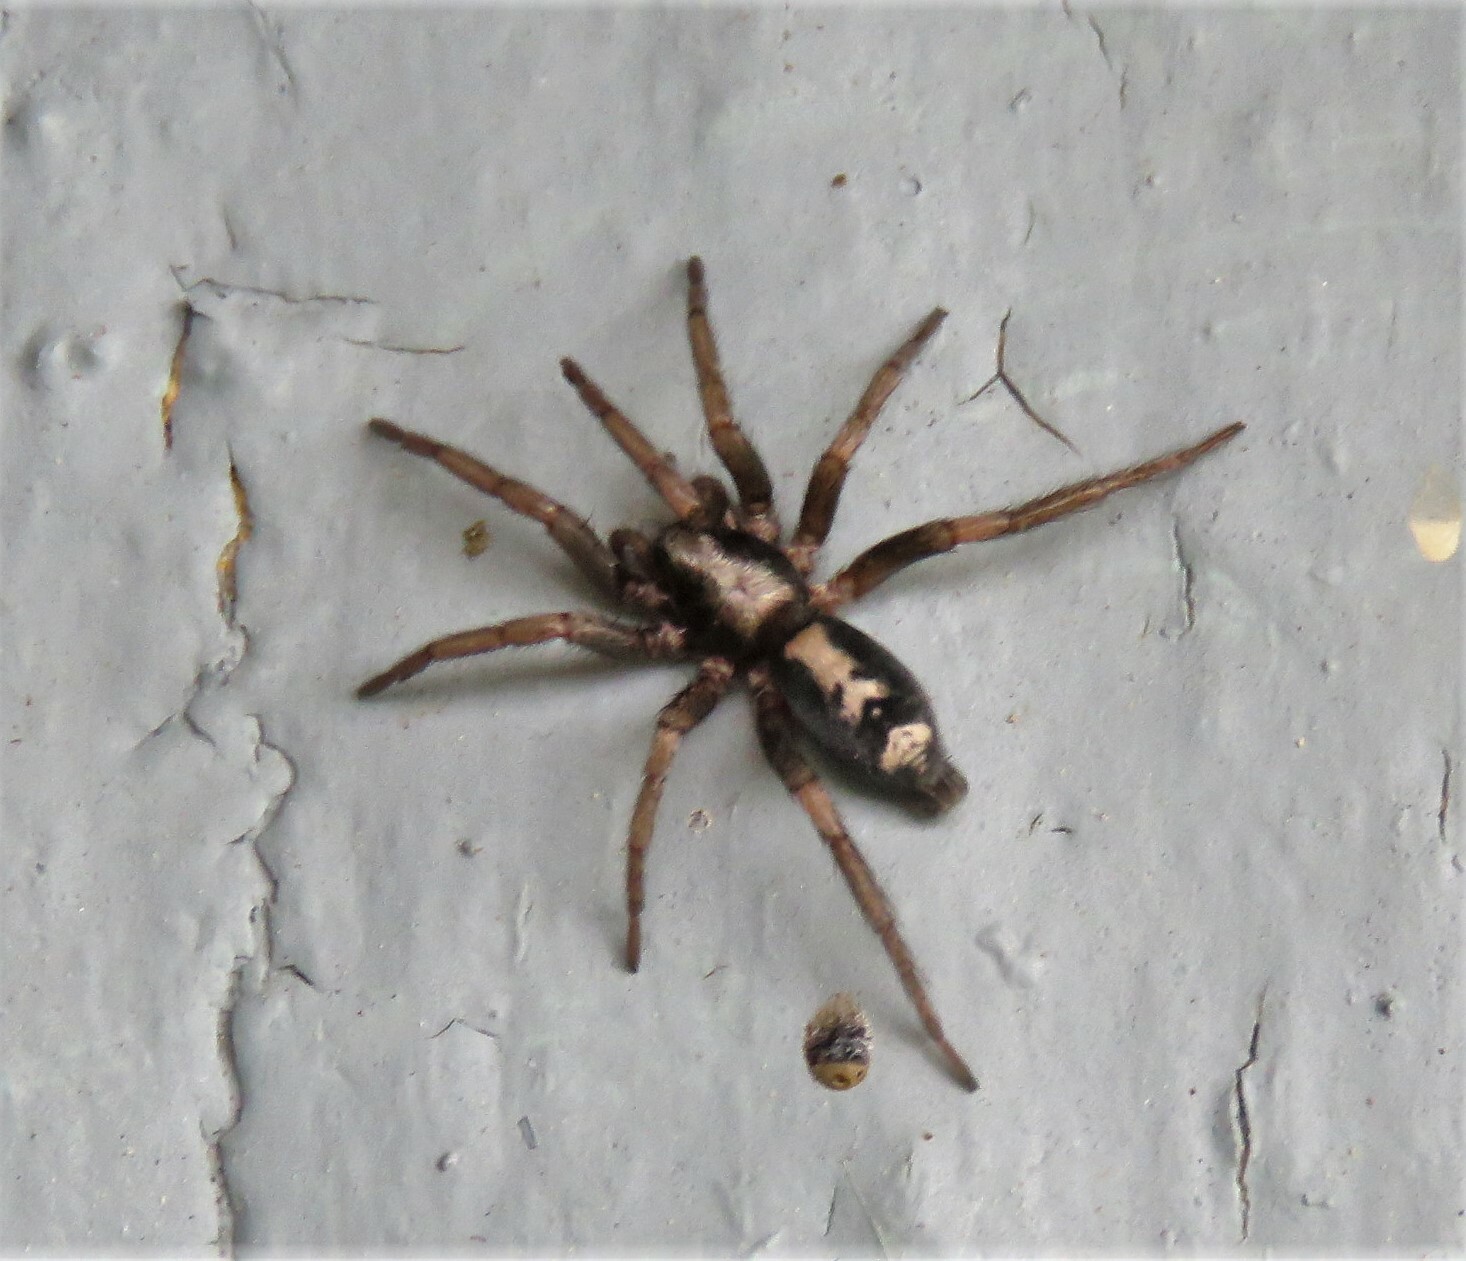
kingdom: Animalia
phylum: Arthropoda
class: Arachnida
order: Araneae
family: Gnaphosidae
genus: Herpyllus
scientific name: Herpyllus ecclesiasticus
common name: Eastern parson spider
